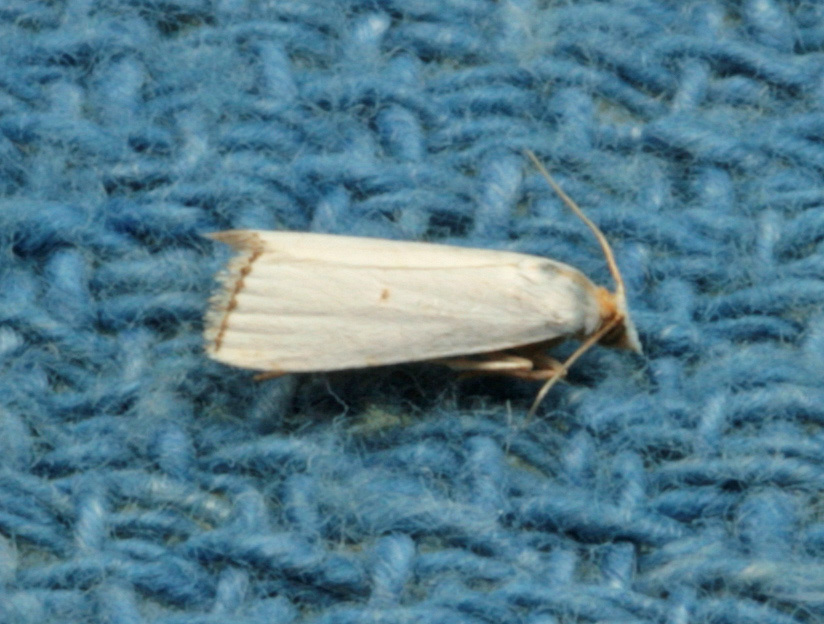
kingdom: Animalia
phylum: Arthropoda
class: Insecta
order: Lepidoptera
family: Crambidae
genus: Argyria
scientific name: Argyria nivalis
